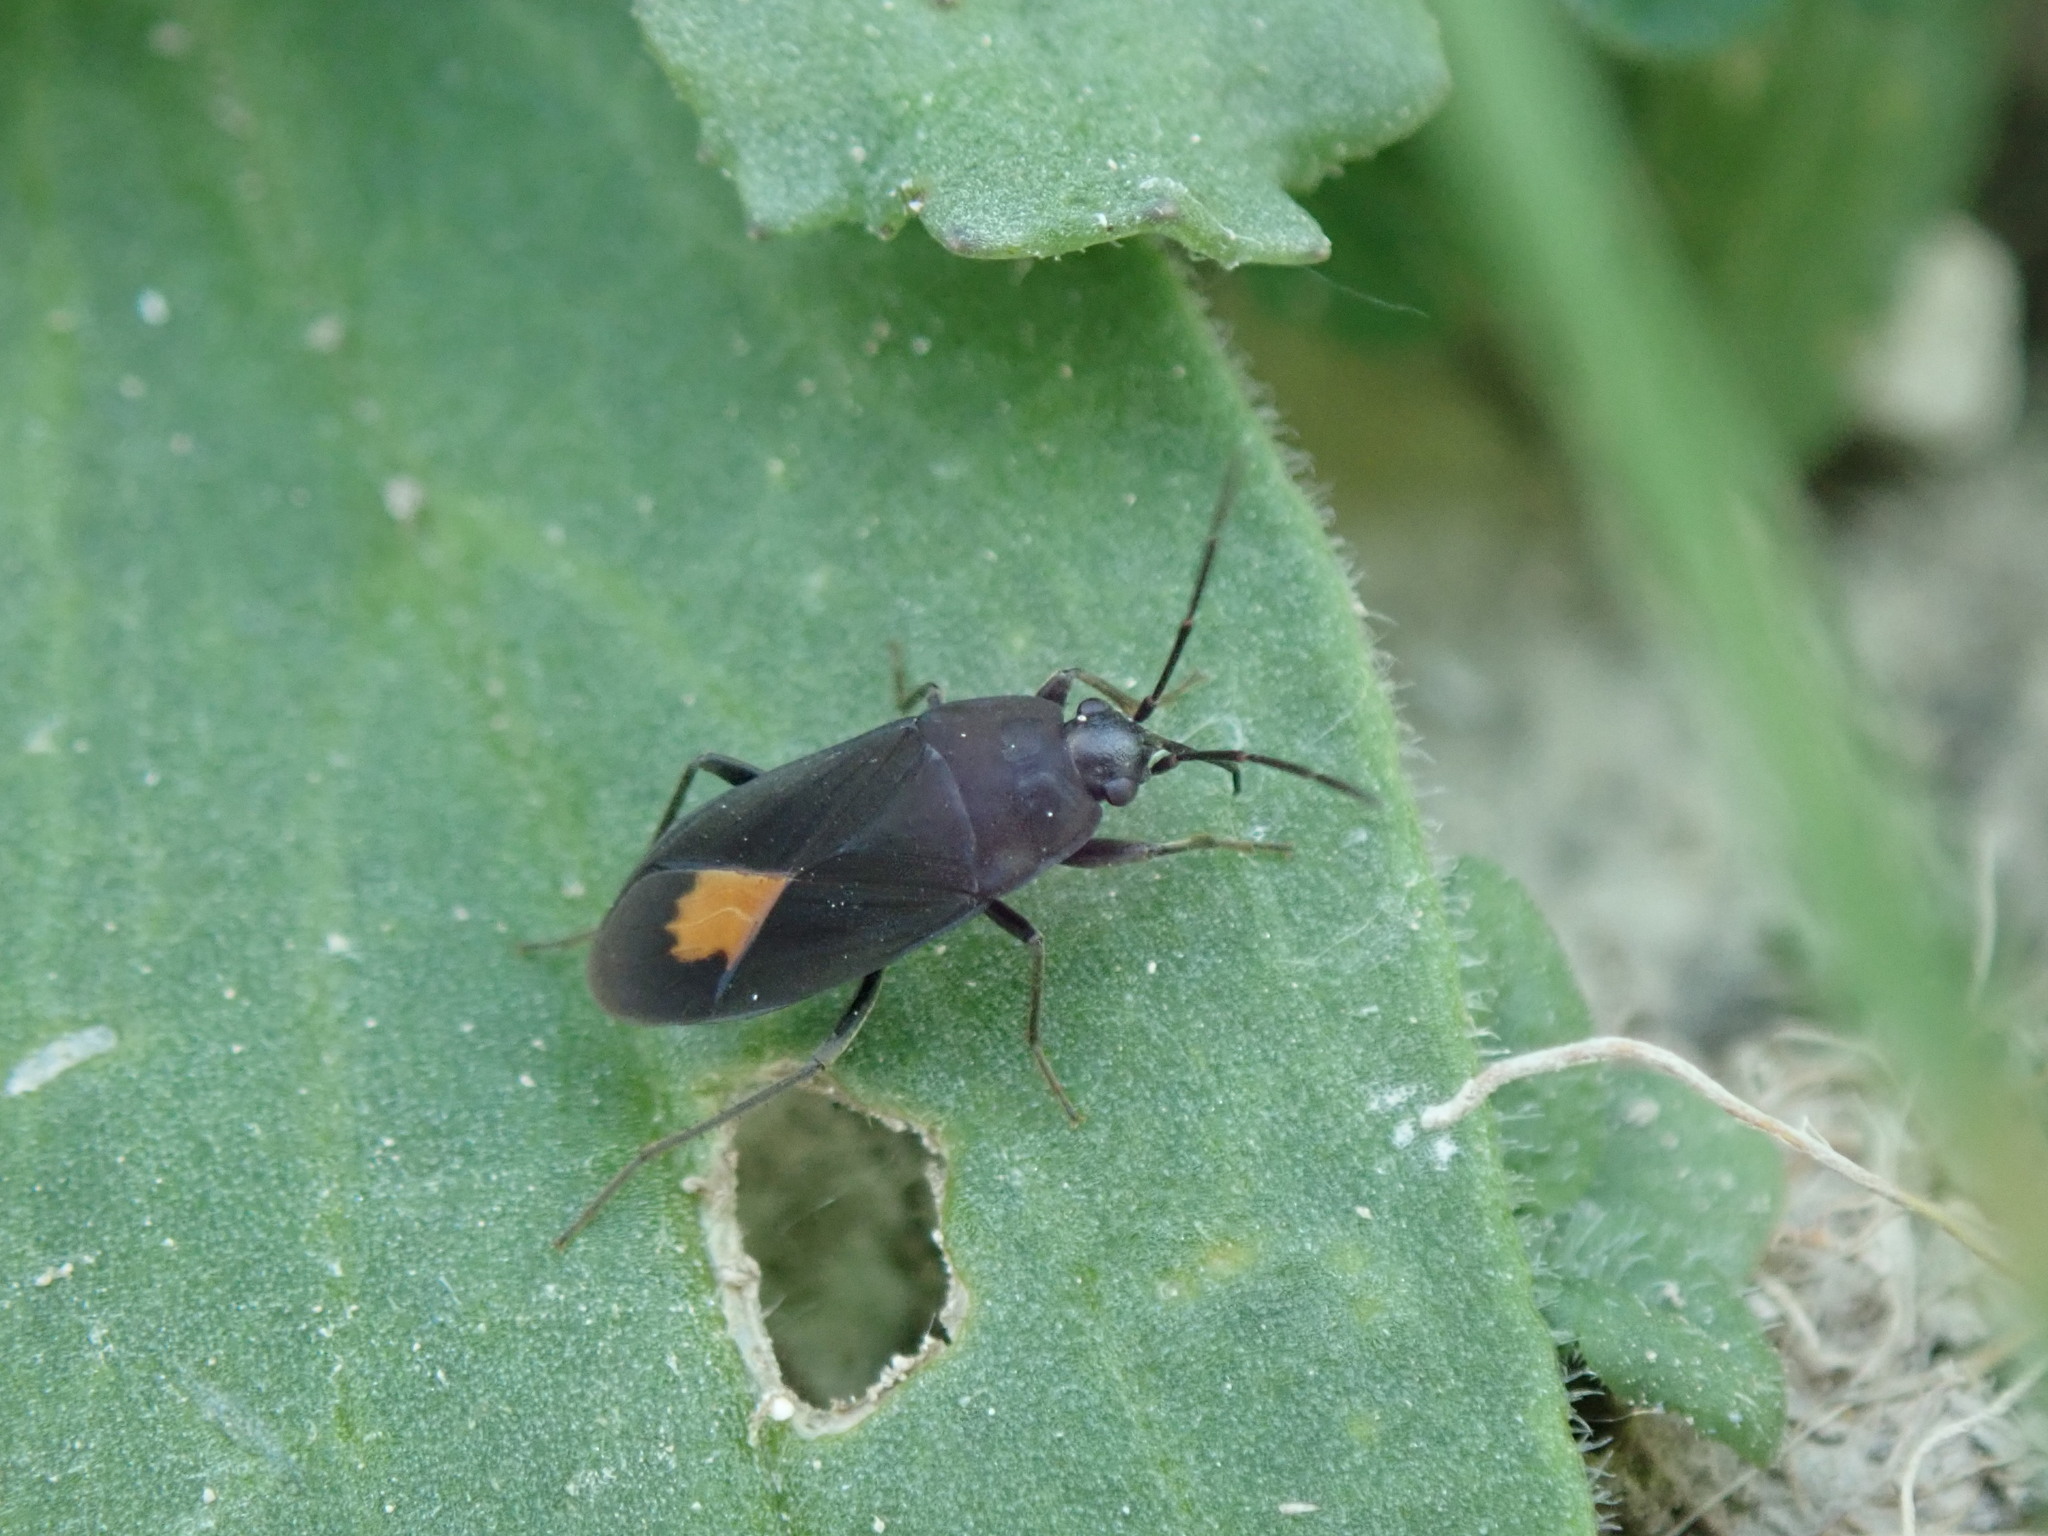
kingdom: Animalia
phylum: Arthropoda
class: Insecta
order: Hemiptera
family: Rhyparochromidae
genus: Aphanus
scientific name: Aphanus rolandri
